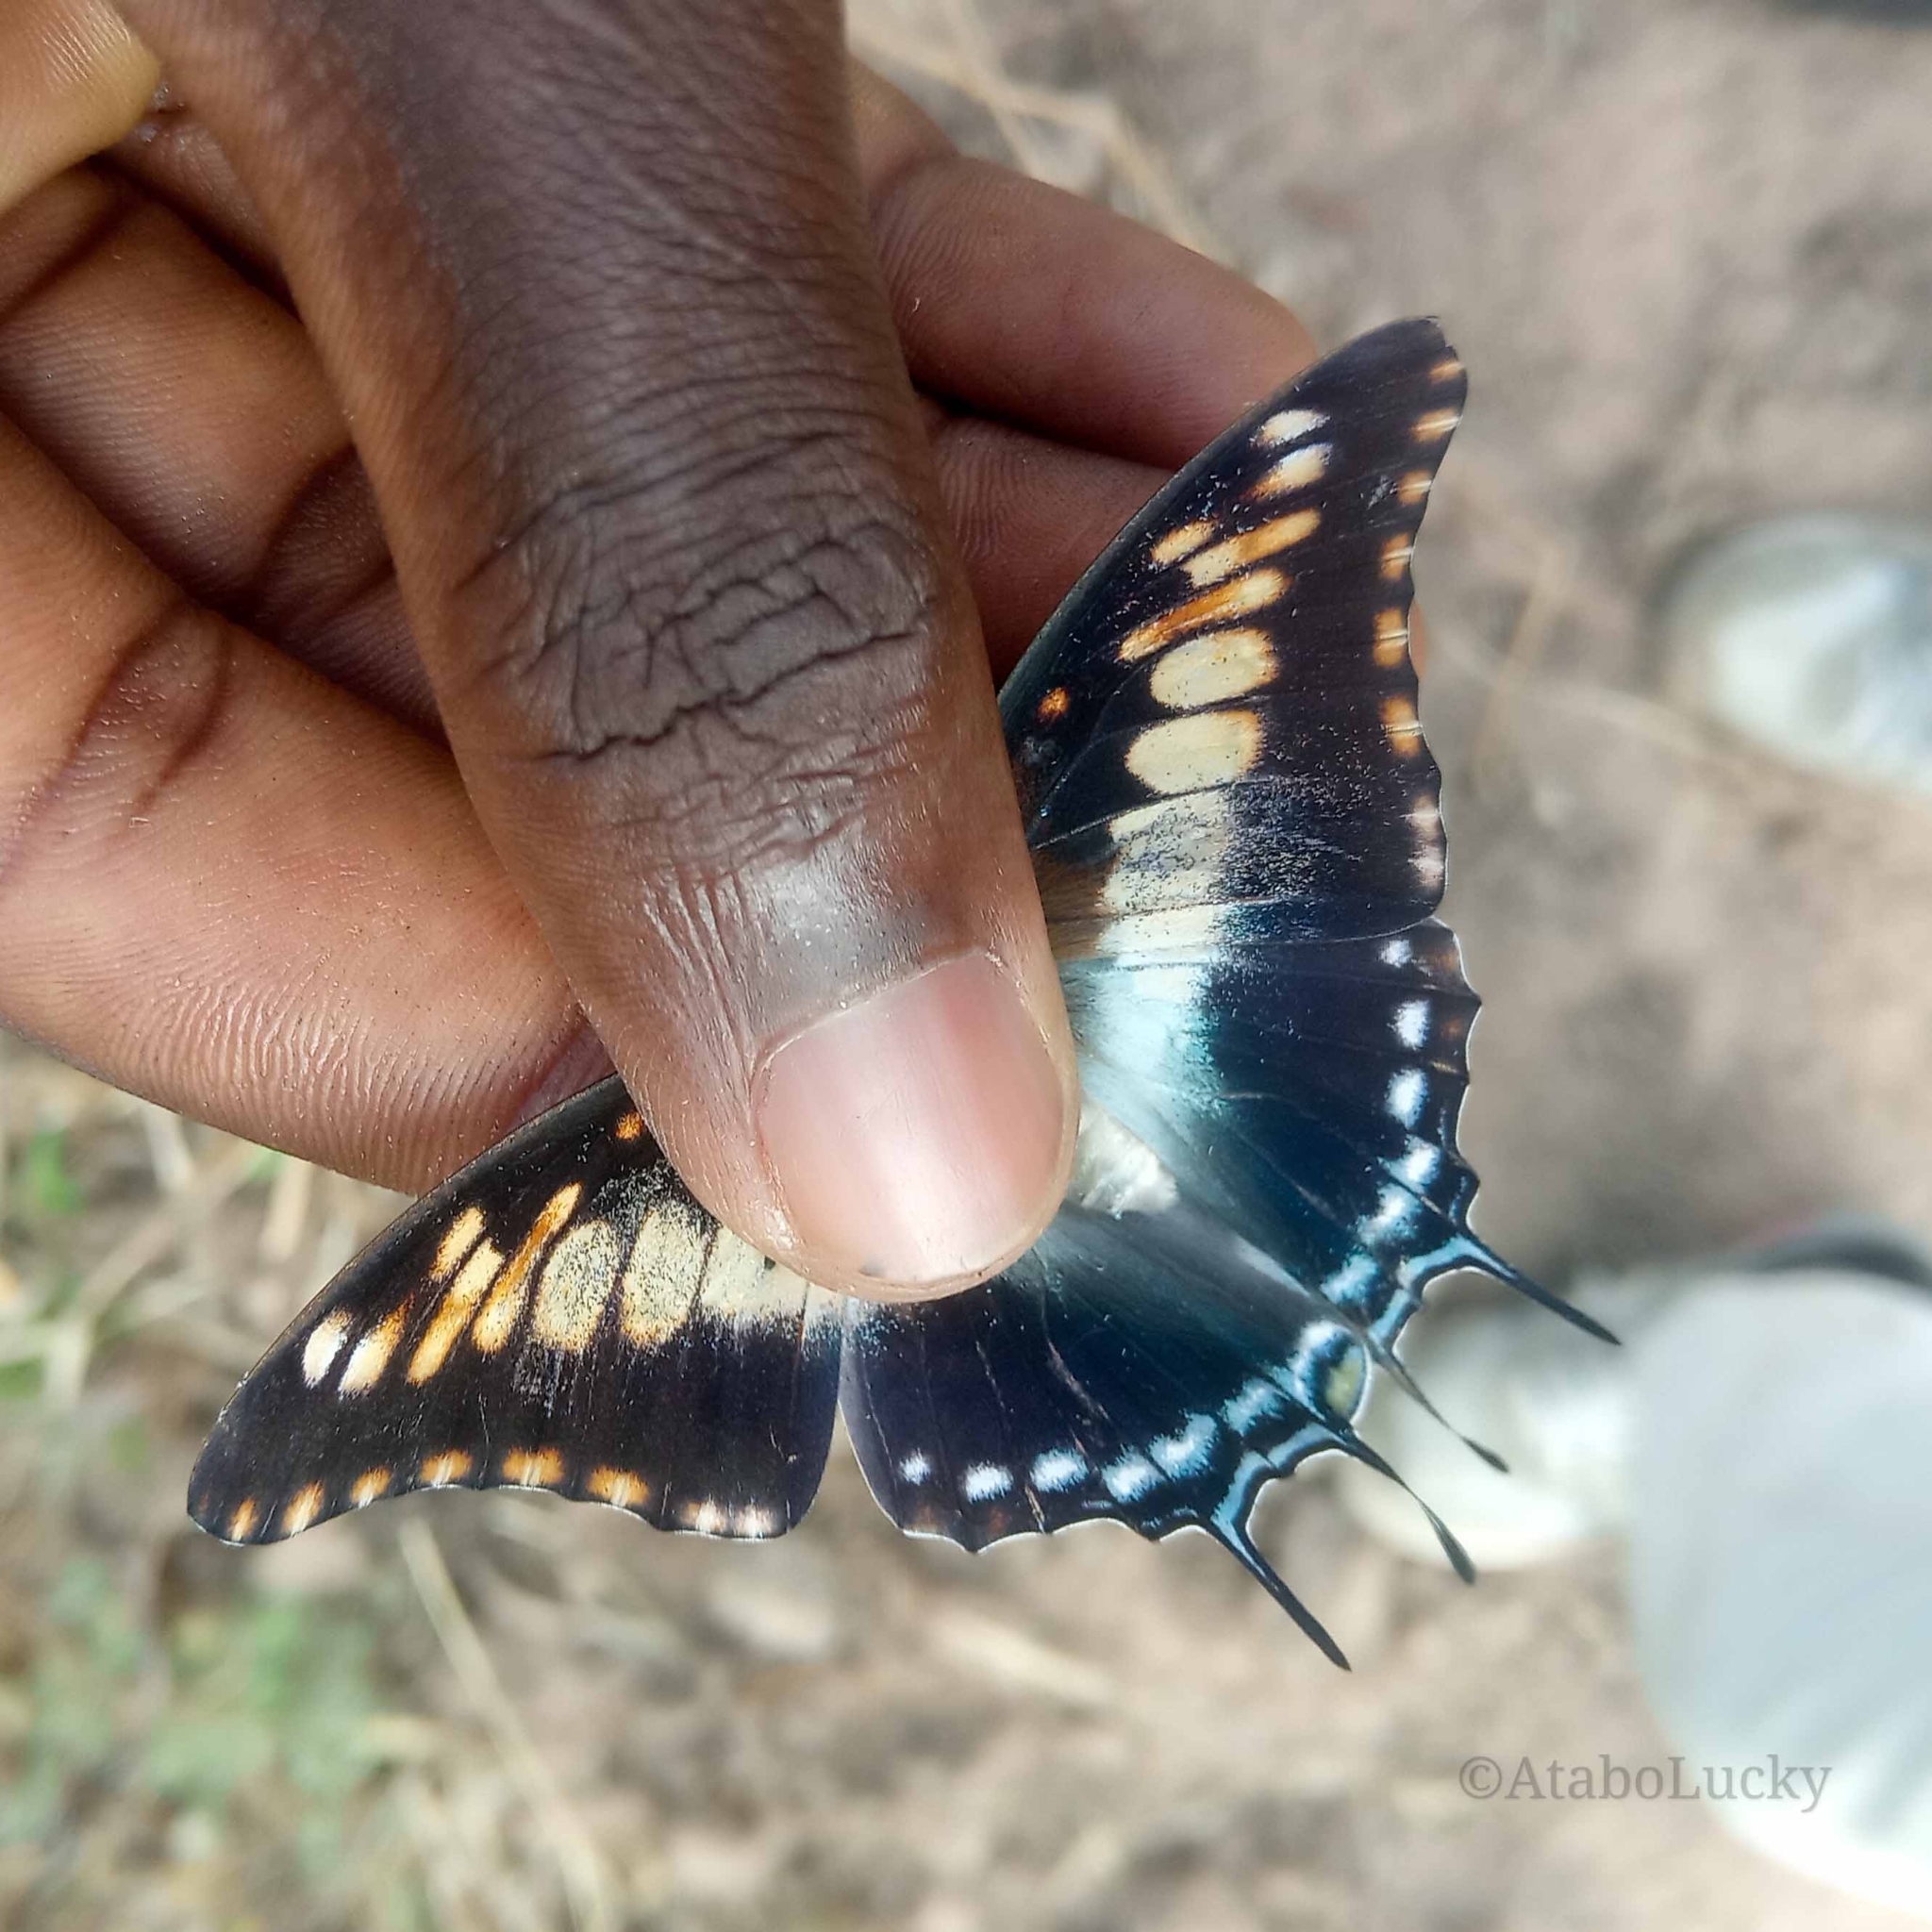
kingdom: Animalia
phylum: Arthropoda
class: Insecta
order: Lepidoptera
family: Nymphalidae
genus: Charaxes
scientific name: Charaxes achaemenes
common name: Bushveld charaxes
